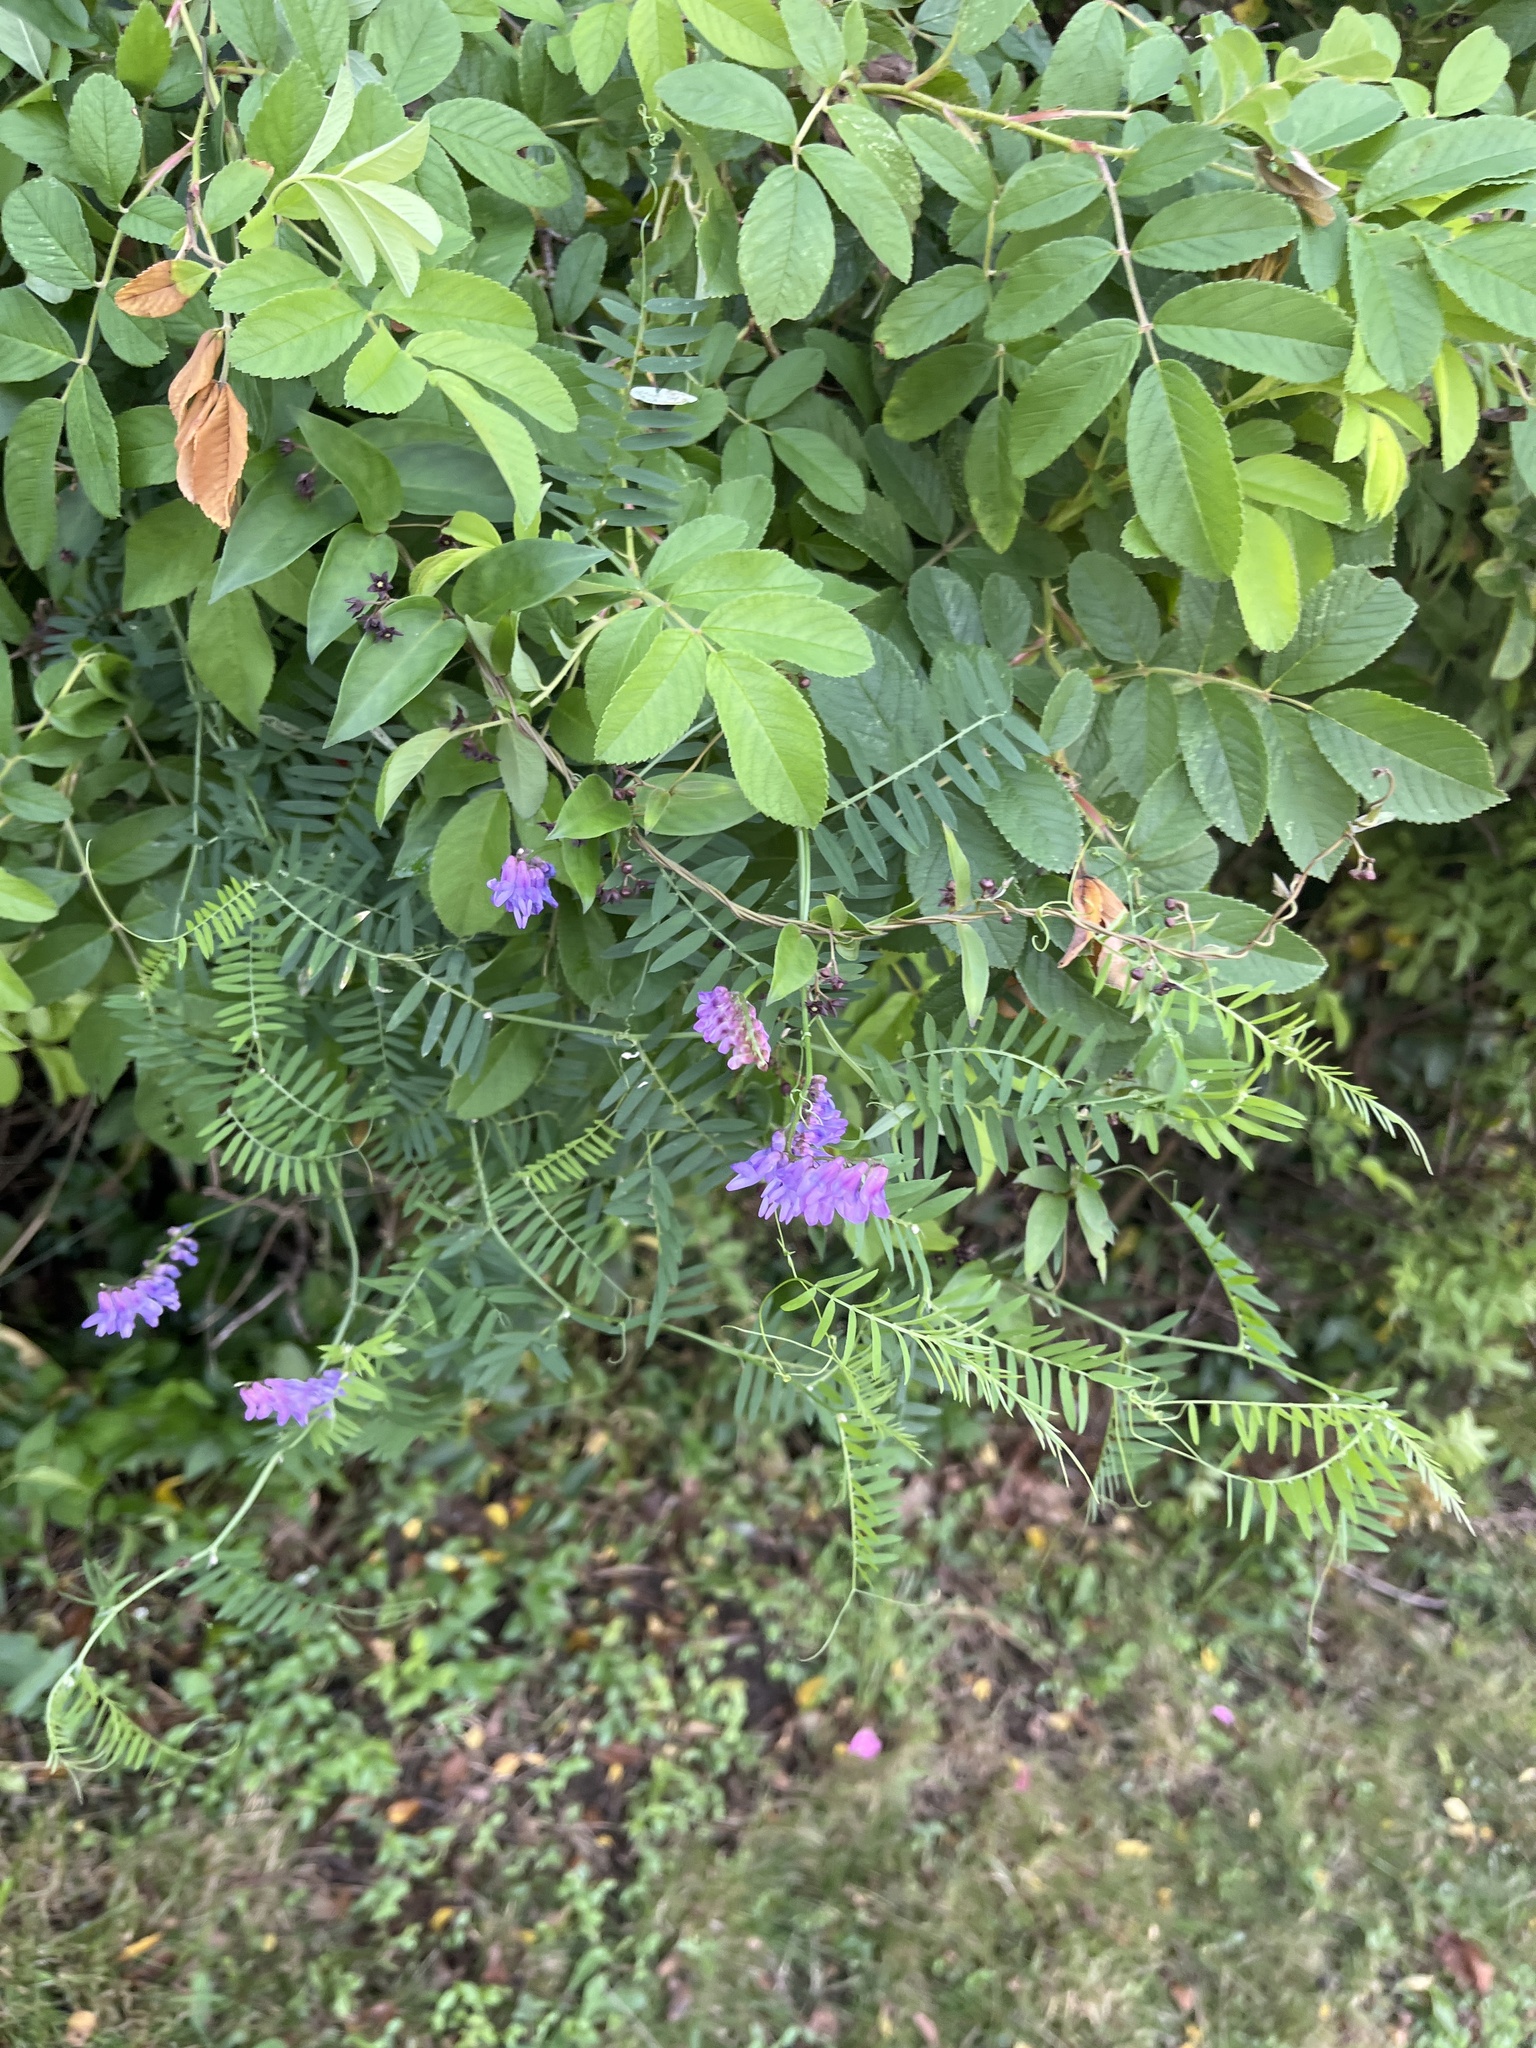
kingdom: Plantae
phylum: Tracheophyta
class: Magnoliopsida
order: Fabales
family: Fabaceae
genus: Vicia
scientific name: Vicia cracca
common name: Bird vetch
